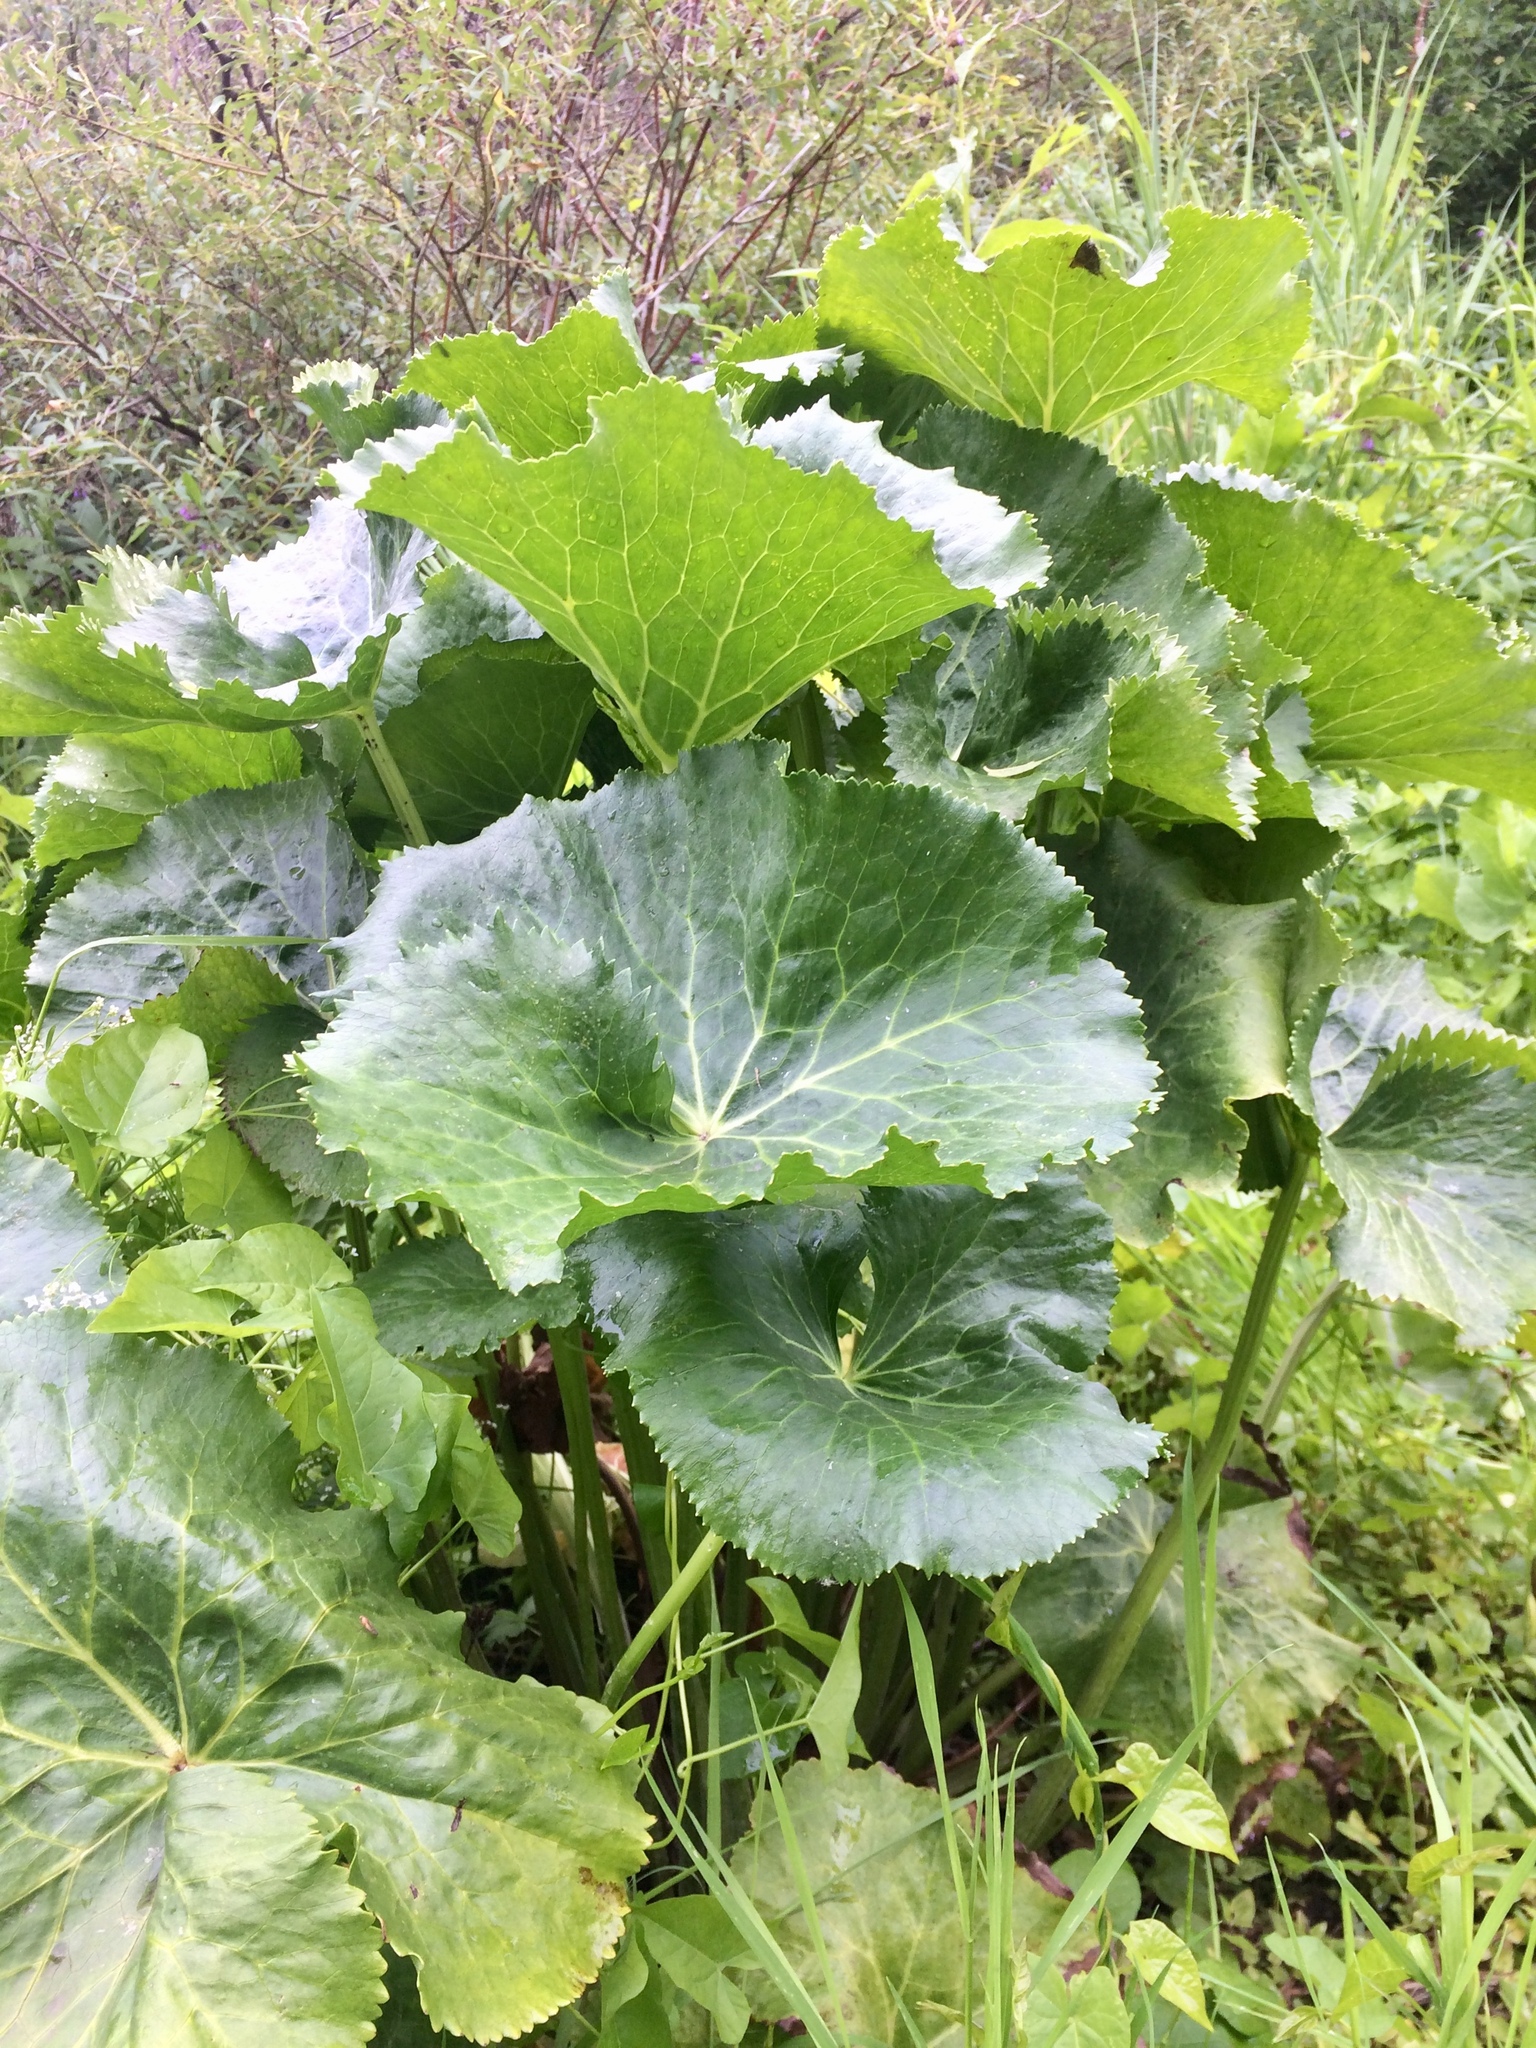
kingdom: Plantae
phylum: Tracheophyta
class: Magnoliopsida
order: Ranunculales
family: Ranunculaceae
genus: Caltha
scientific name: Caltha palustris
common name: Marsh marigold
